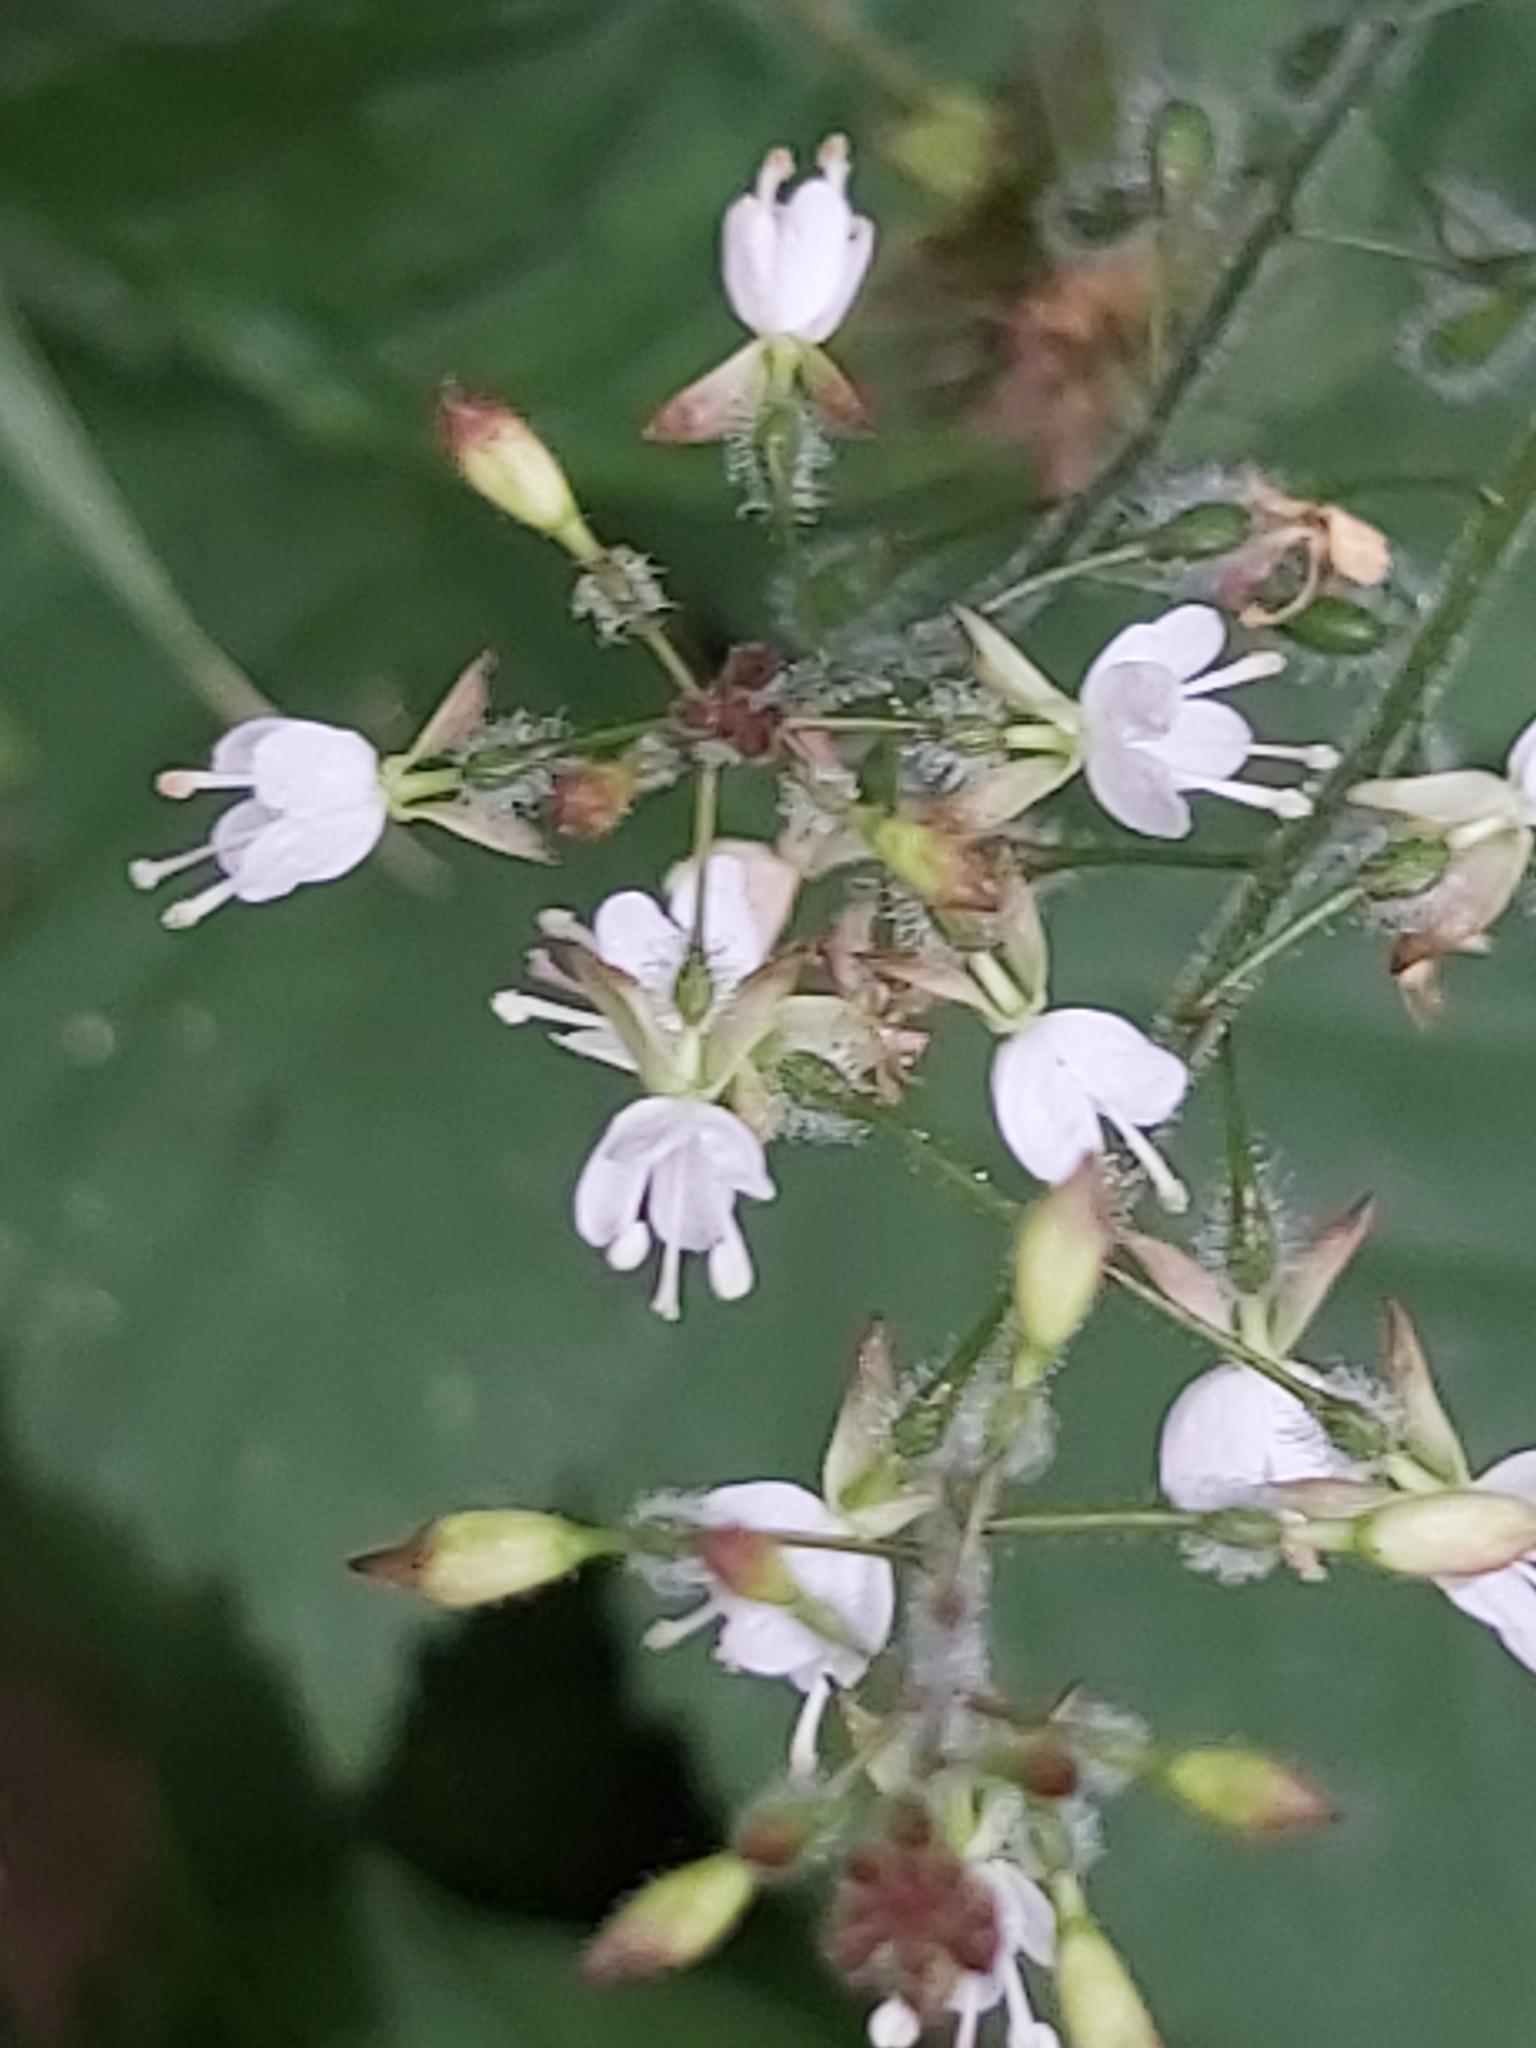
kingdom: Plantae
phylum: Tracheophyta
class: Magnoliopsida
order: Myrtales
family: Onagraceae
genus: Circaea
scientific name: Circaea lutetiana
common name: Enchanter's-nightshade
